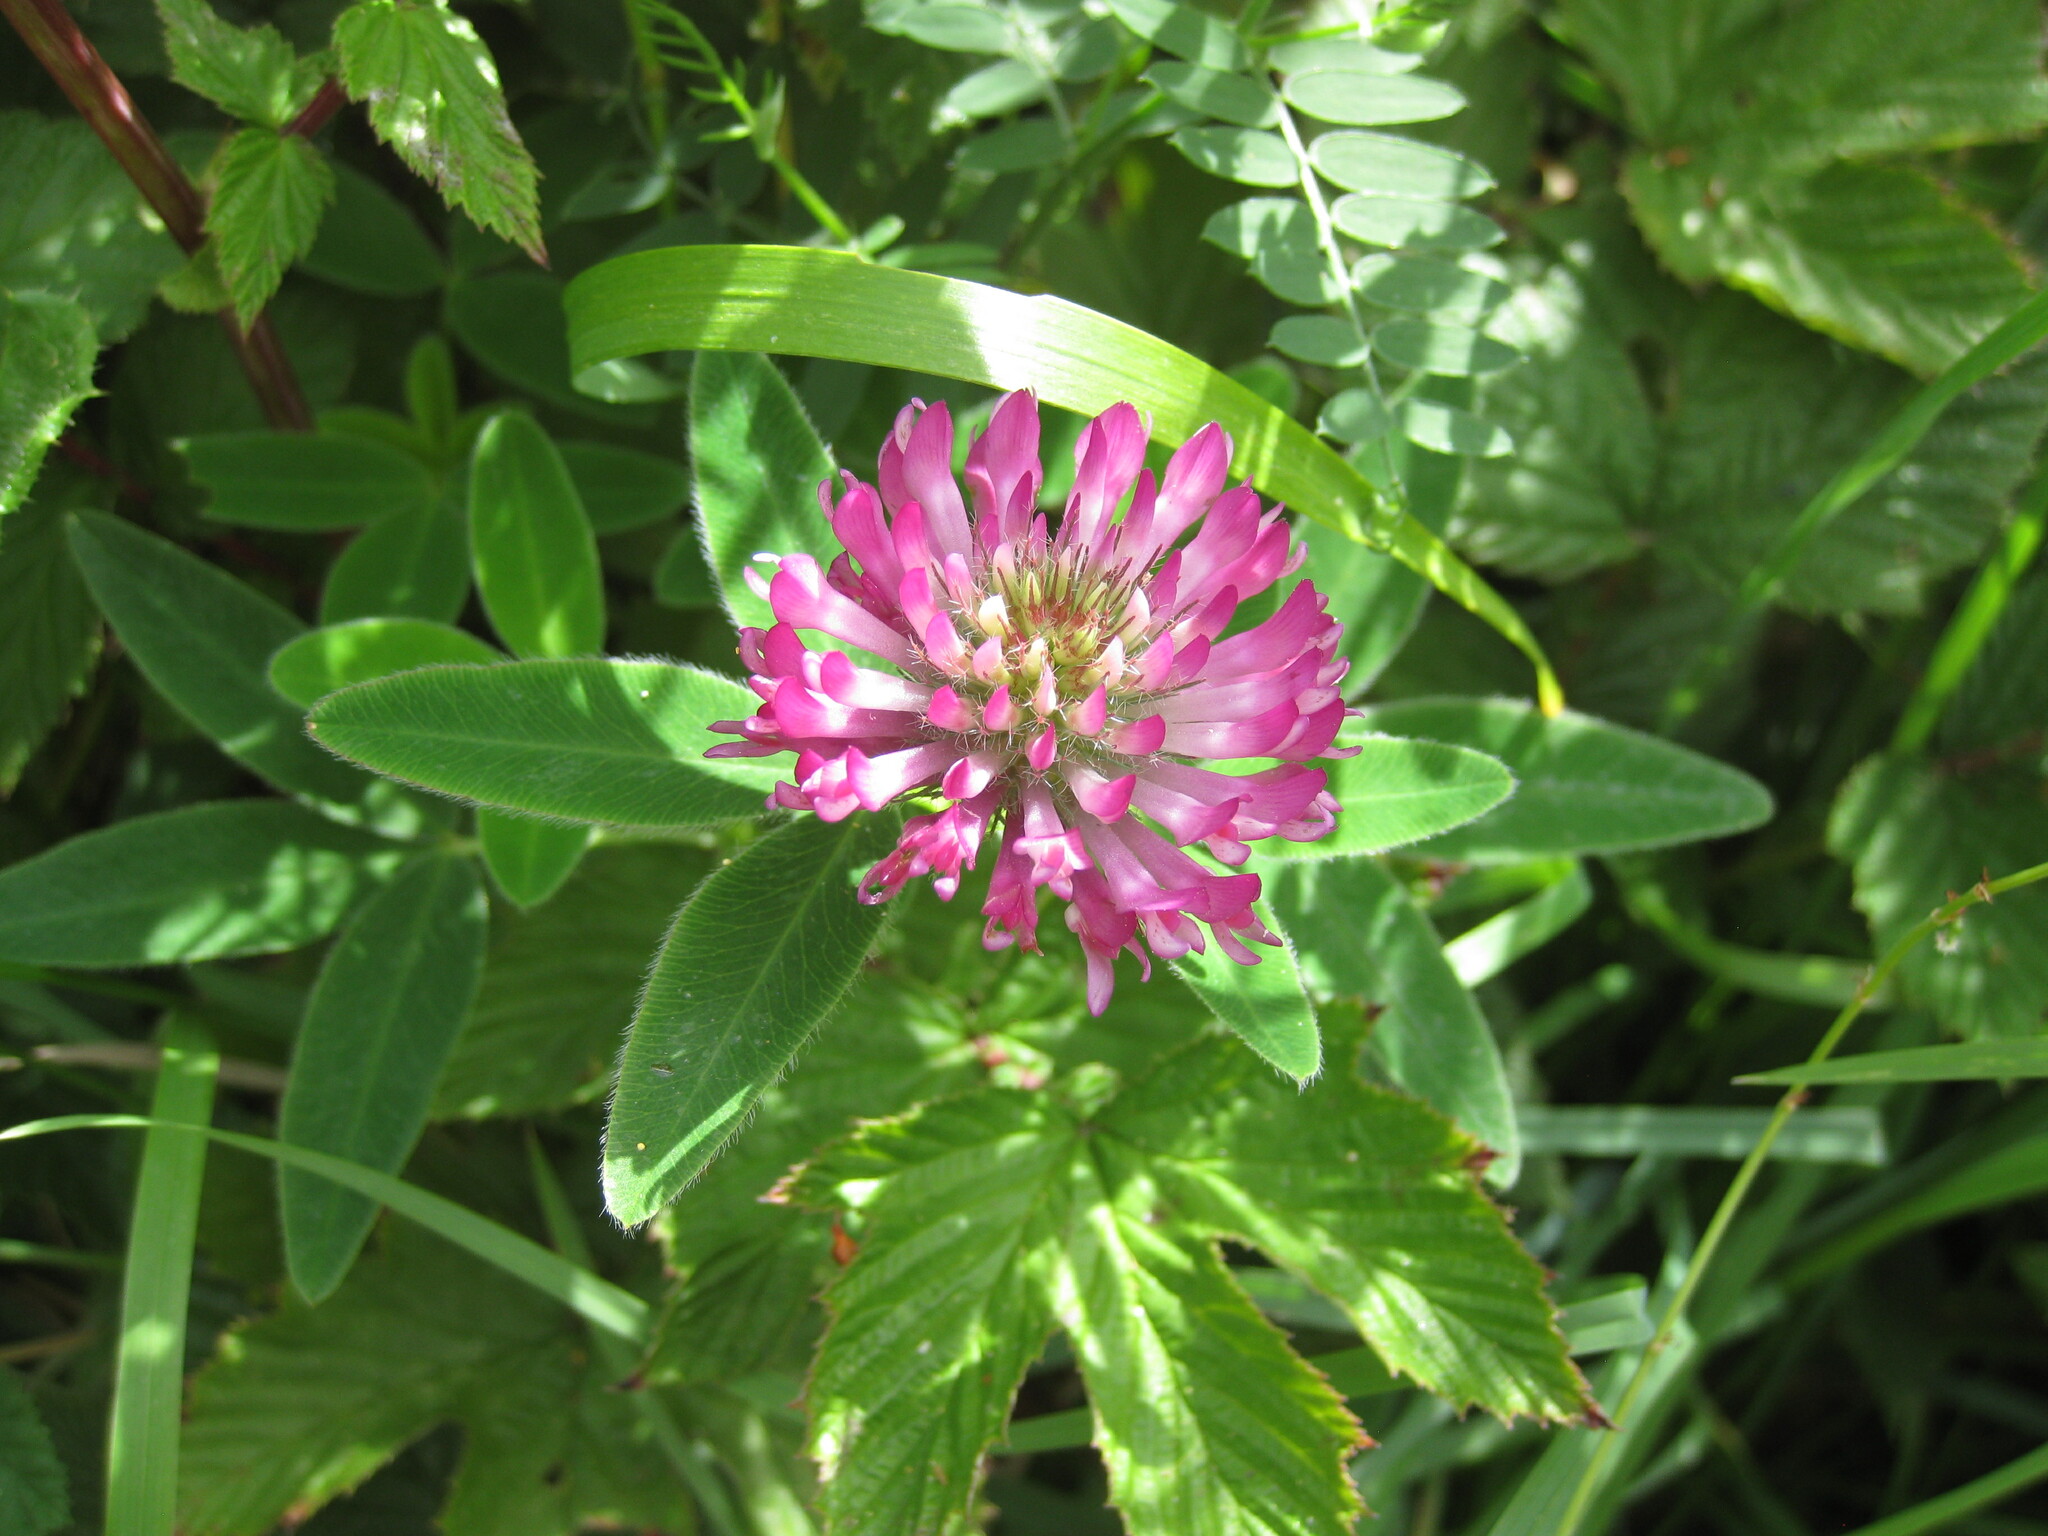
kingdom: Plantae
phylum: Tracheophyta
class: Magnoliopsida
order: Fabales
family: Fabaceae
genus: Trifolium
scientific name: Trifolium medium
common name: Zigzag clover
